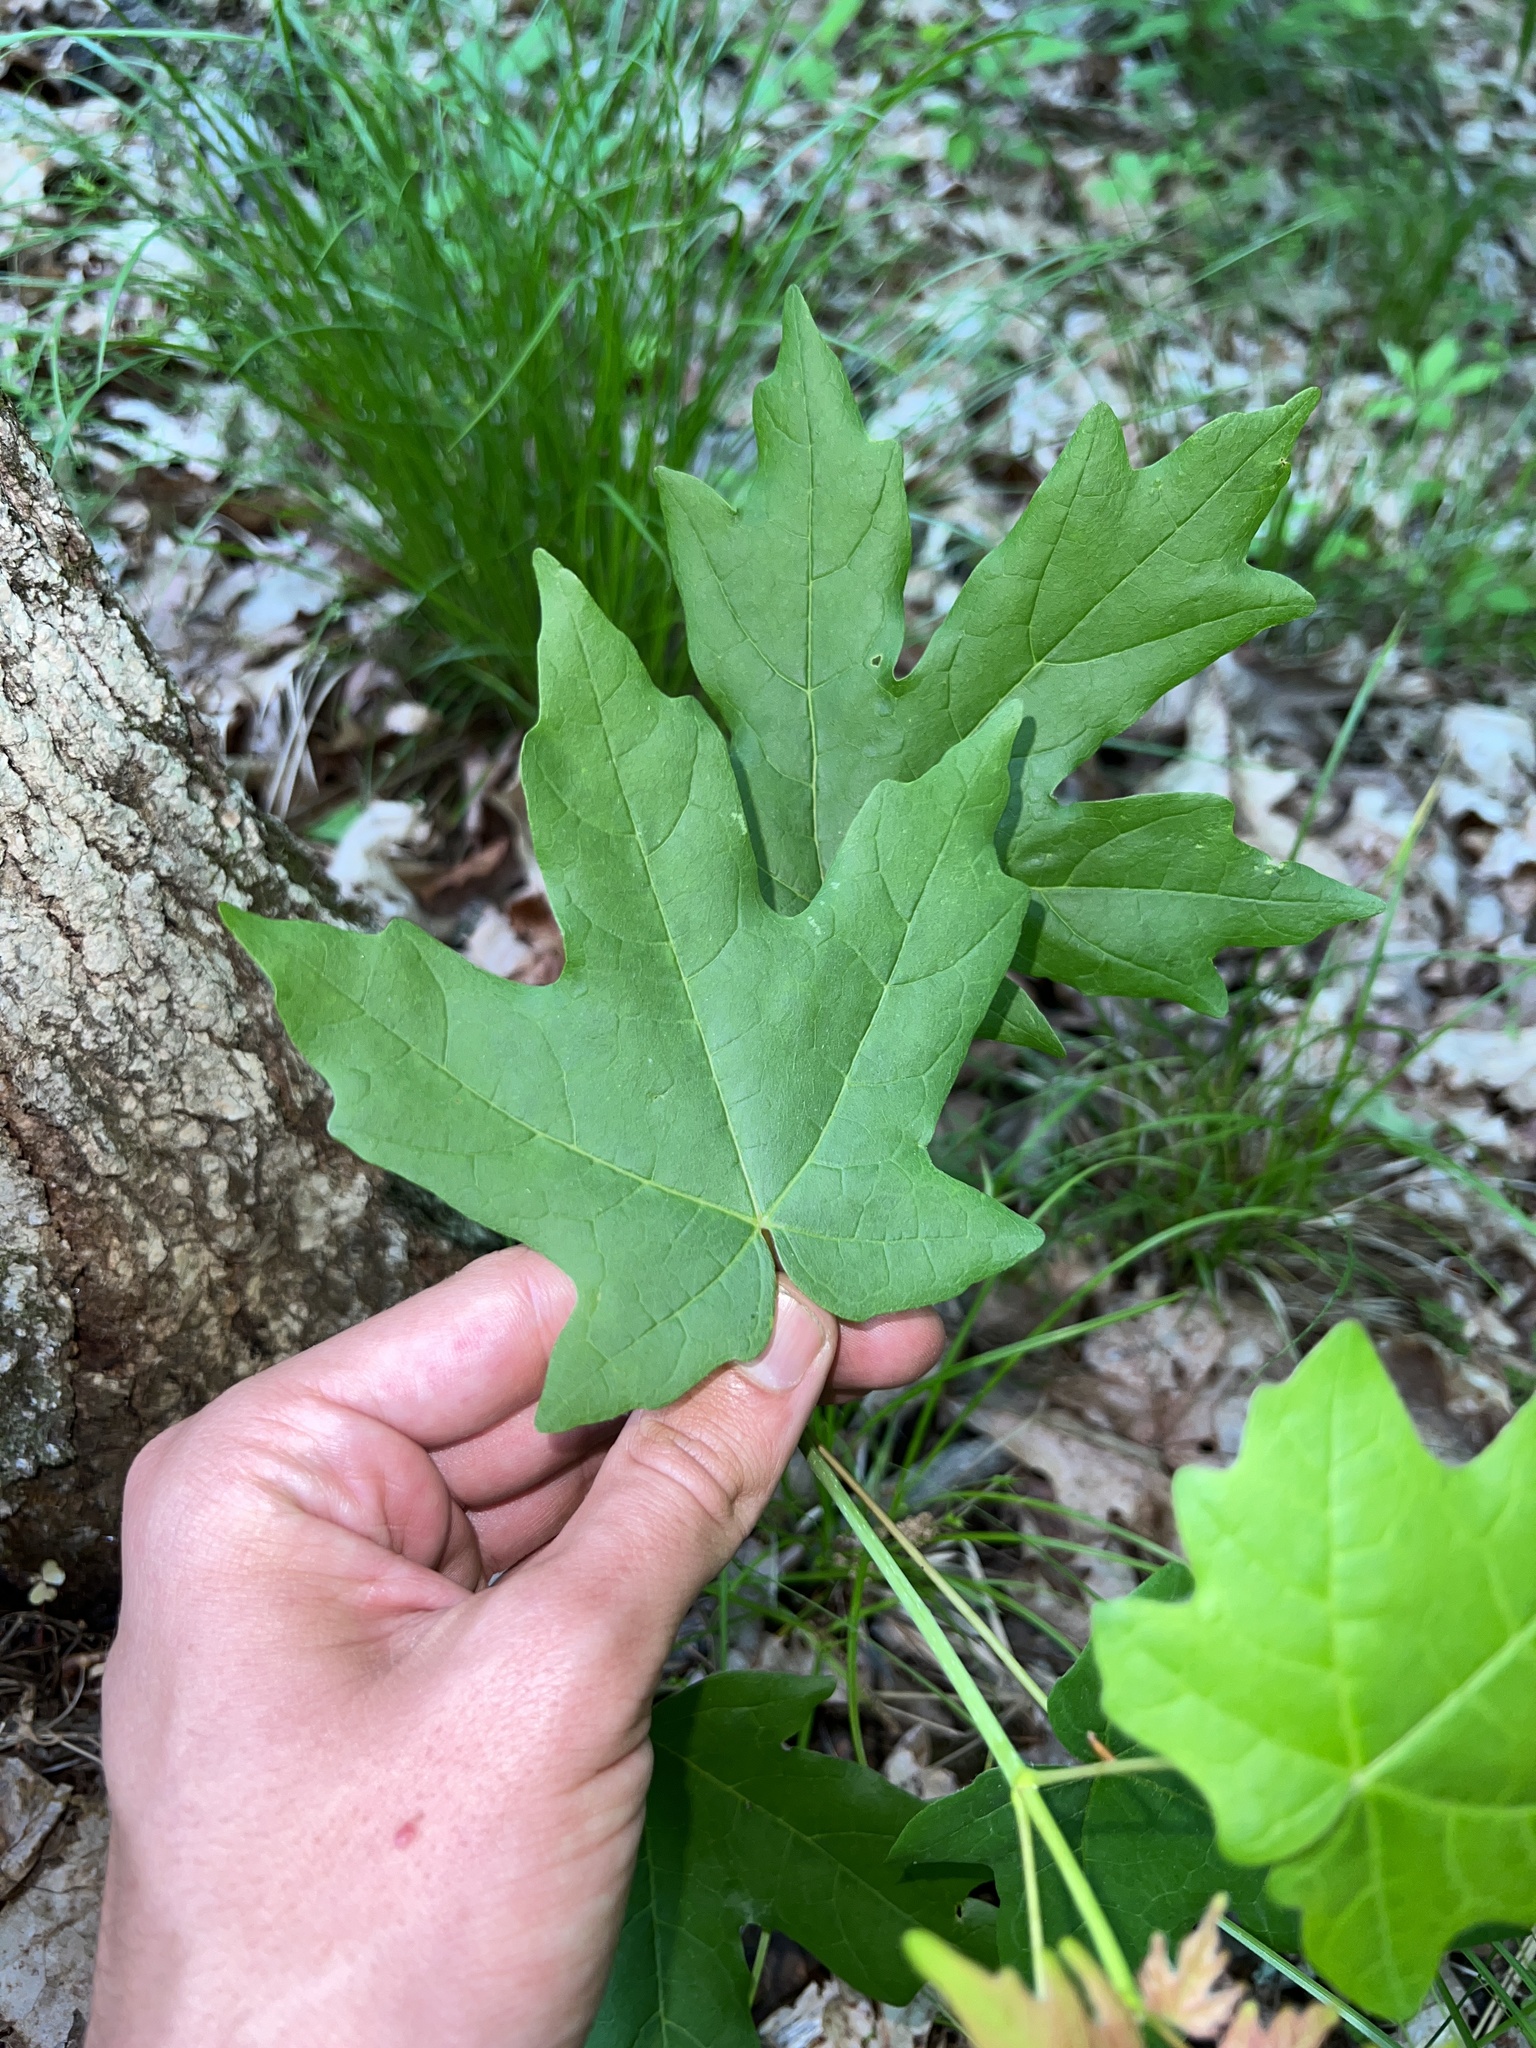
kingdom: Plantae
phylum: Tracheophyta
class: Magnoliopsida
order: Sapindales
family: Sapindaceae
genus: Acer
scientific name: Acer saccharum
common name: Sugar maple
